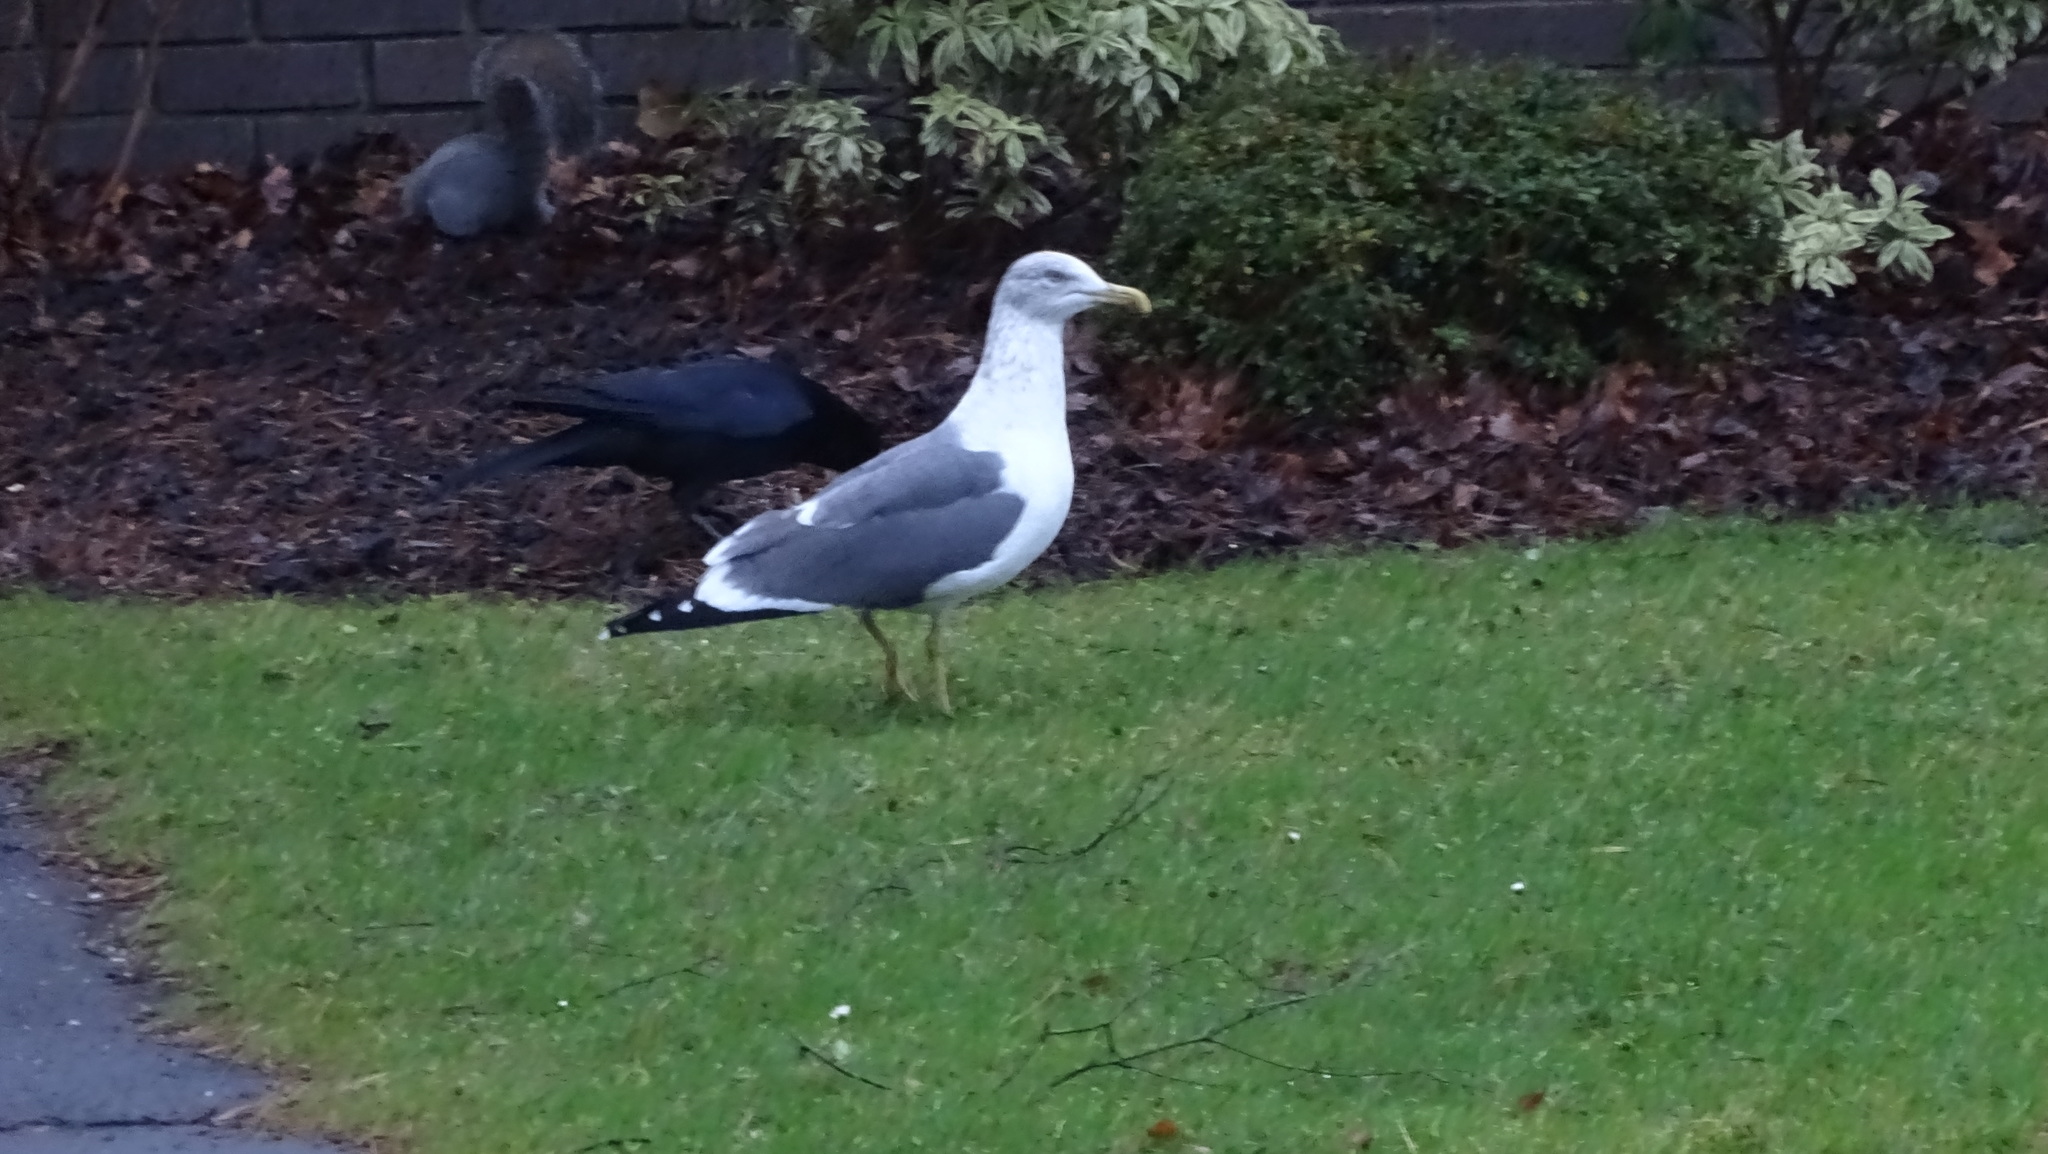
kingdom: Animalia
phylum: Chordata
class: Aves
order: Charadriiformes
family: Laridae
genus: Larus
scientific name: Larus fuscus
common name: Lesser black-backed gull
